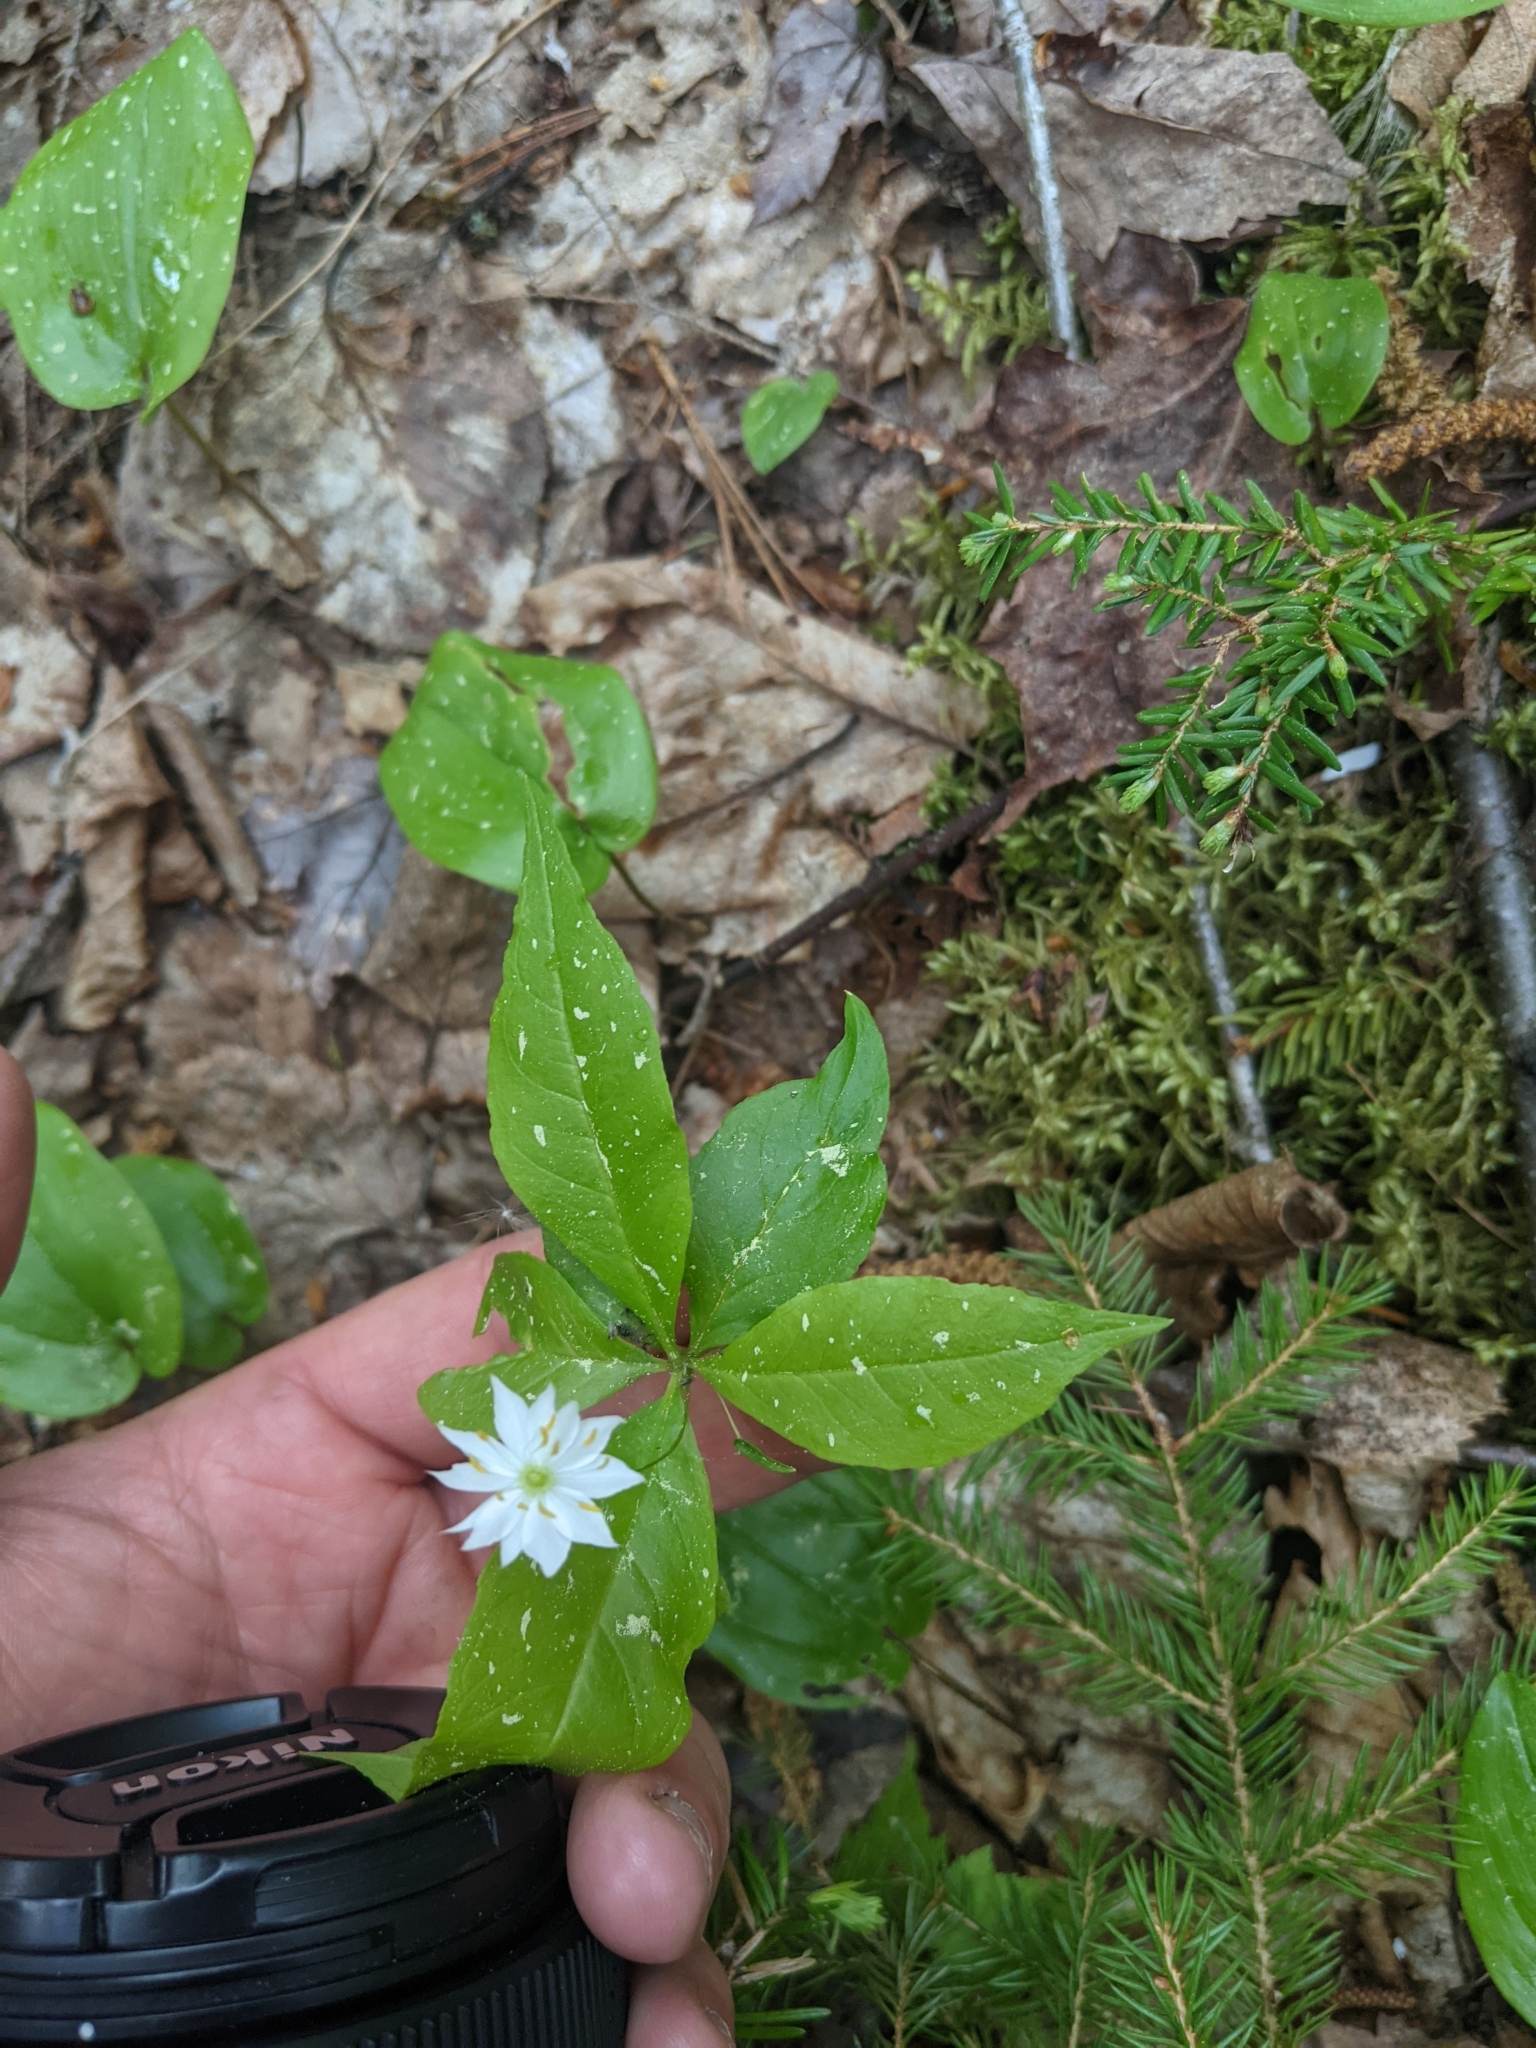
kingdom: Plantae
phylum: Tracheophyta
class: Magnoliopsida
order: Ericales
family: Primulaceae
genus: Lysimachia
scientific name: Lysimachia borealis
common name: American starflower
